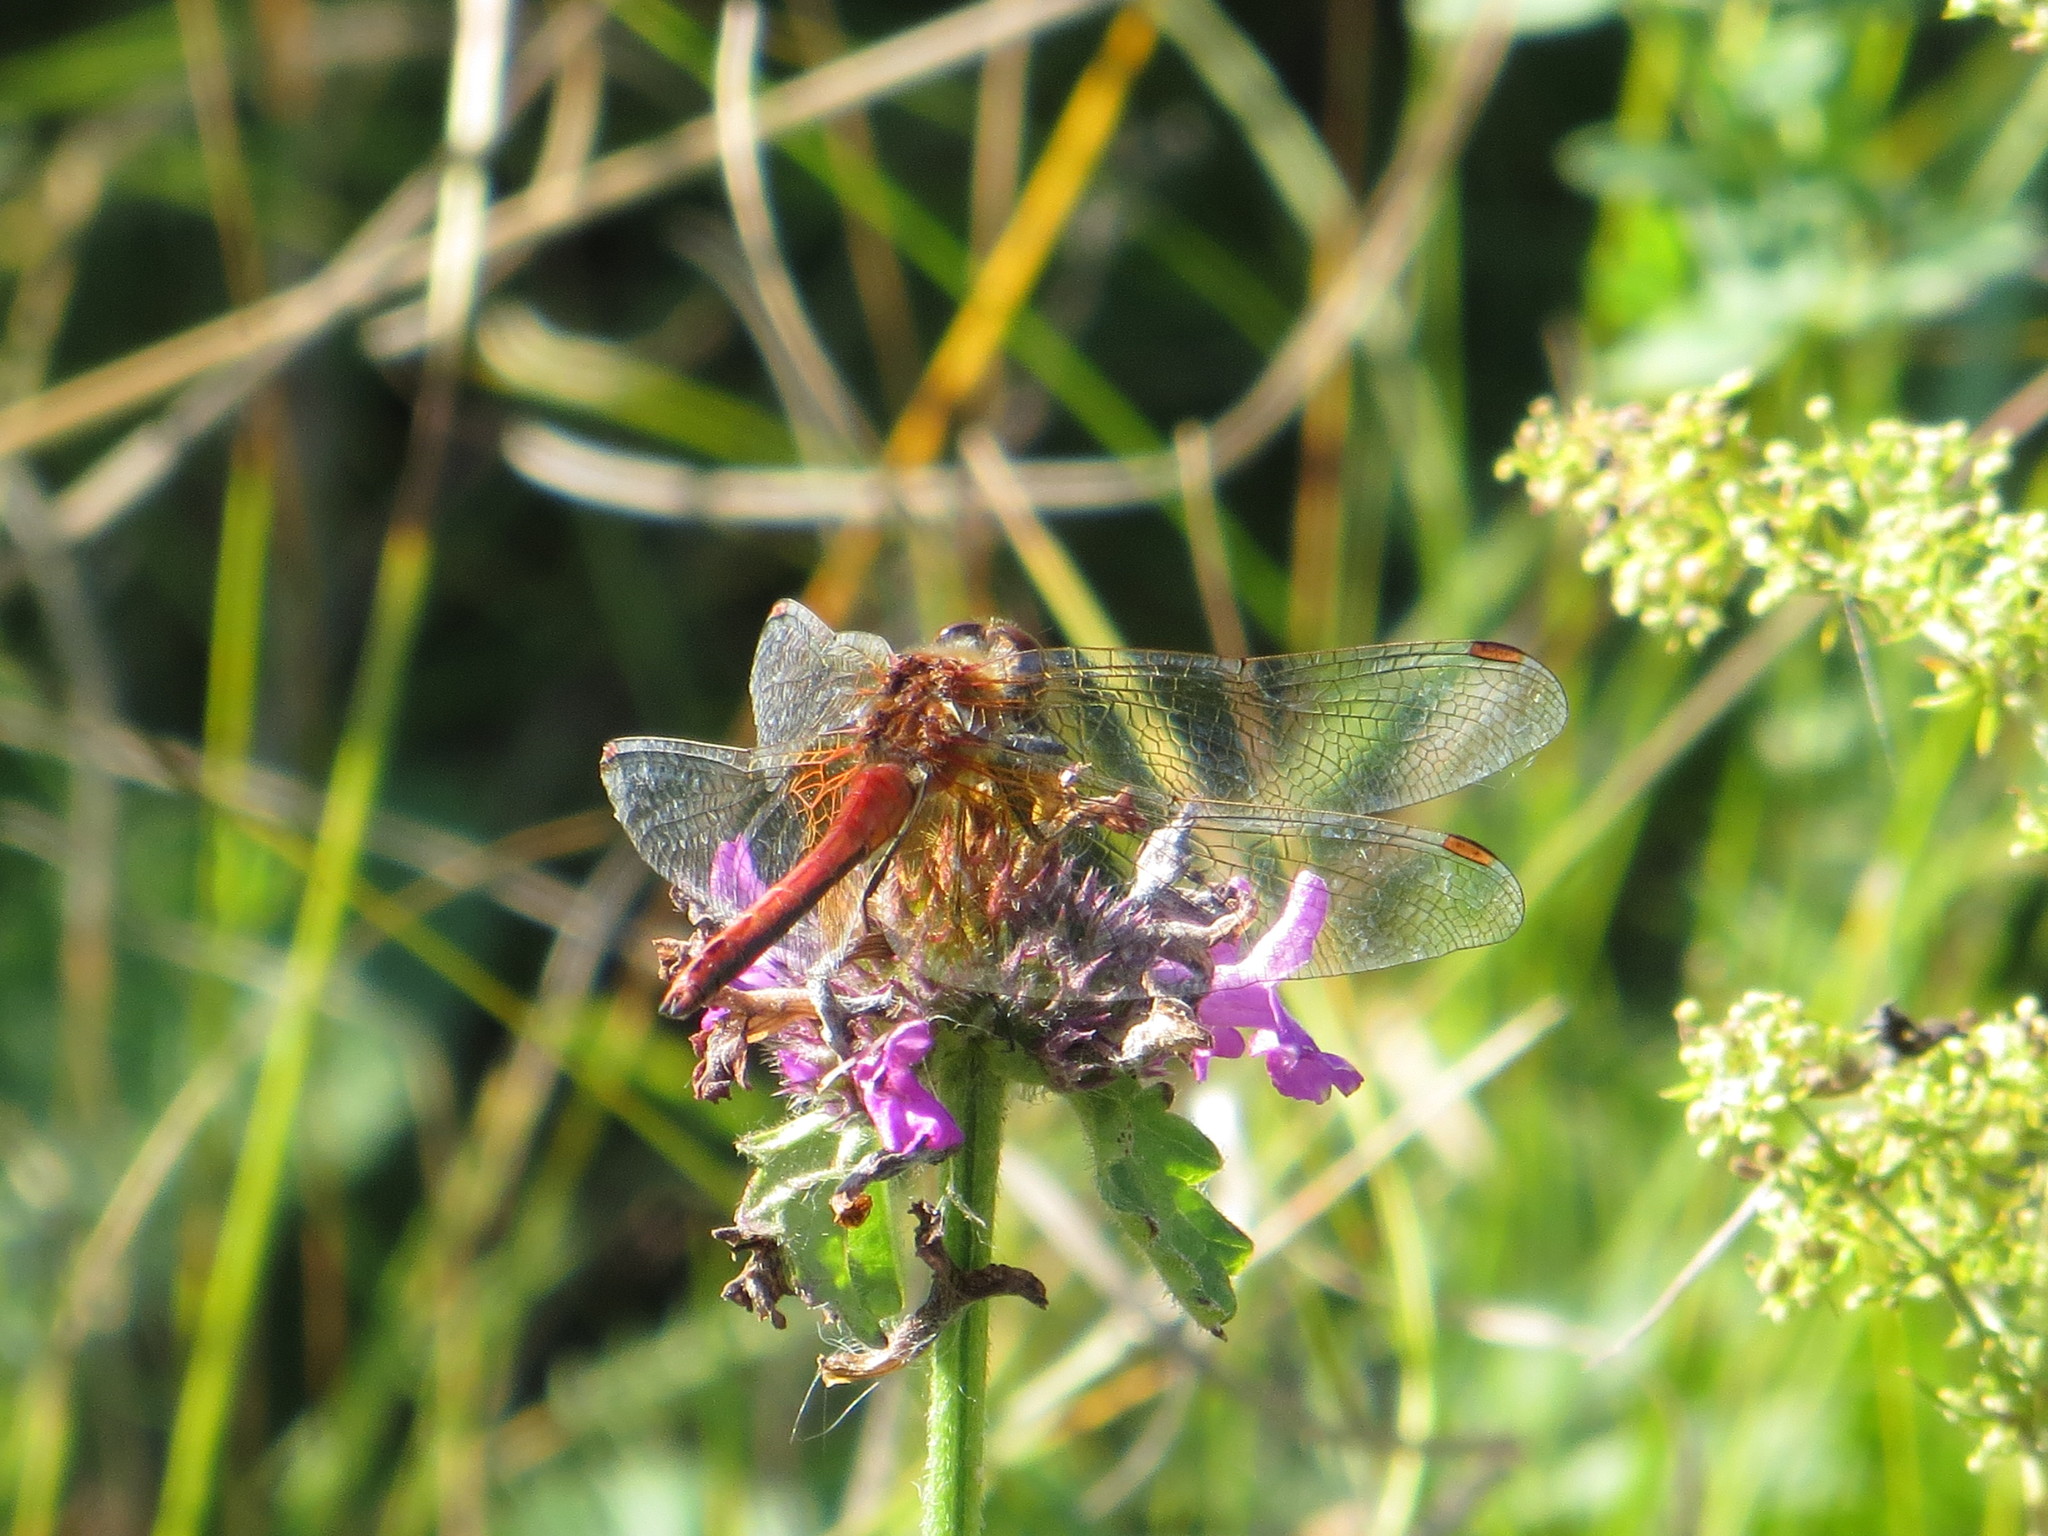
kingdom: Animalia
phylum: Arthropoda
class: Insecta
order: Odonata
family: Libellulidae
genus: Sympetrum
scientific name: Sympetrum flaveolum
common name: Yellow-winged darter
